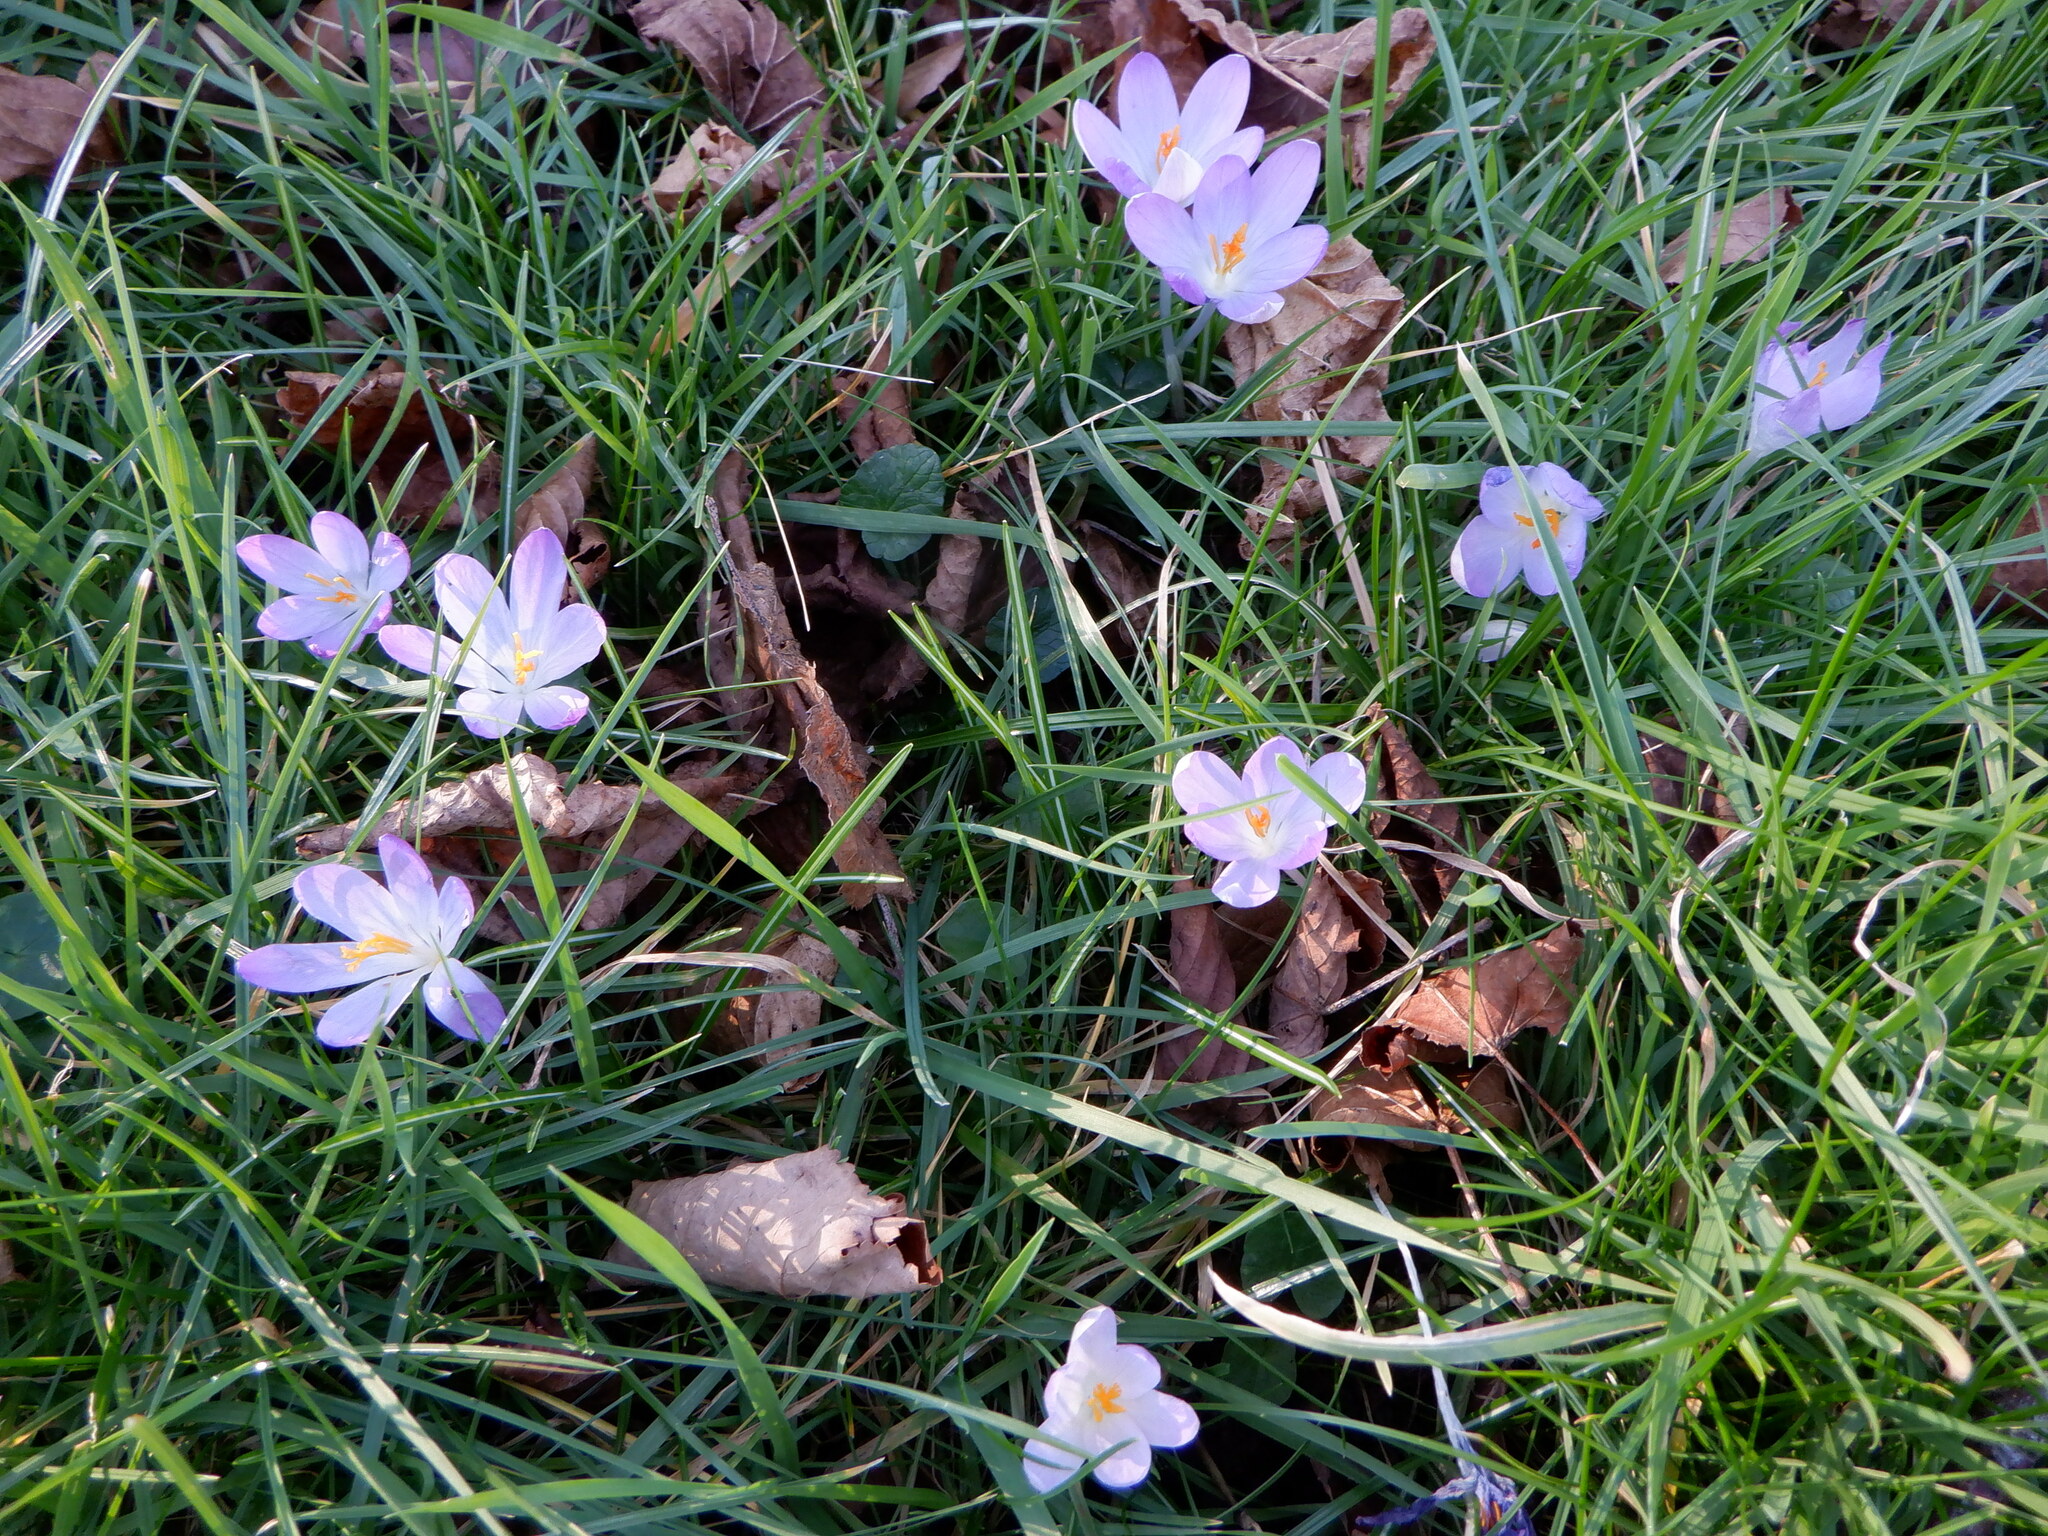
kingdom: Plantae
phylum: Tracheophyta
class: Liliopsida
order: Asparagales
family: Iridaceae
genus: Crocus
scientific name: Crocus tommasinianus
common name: Early crocus
